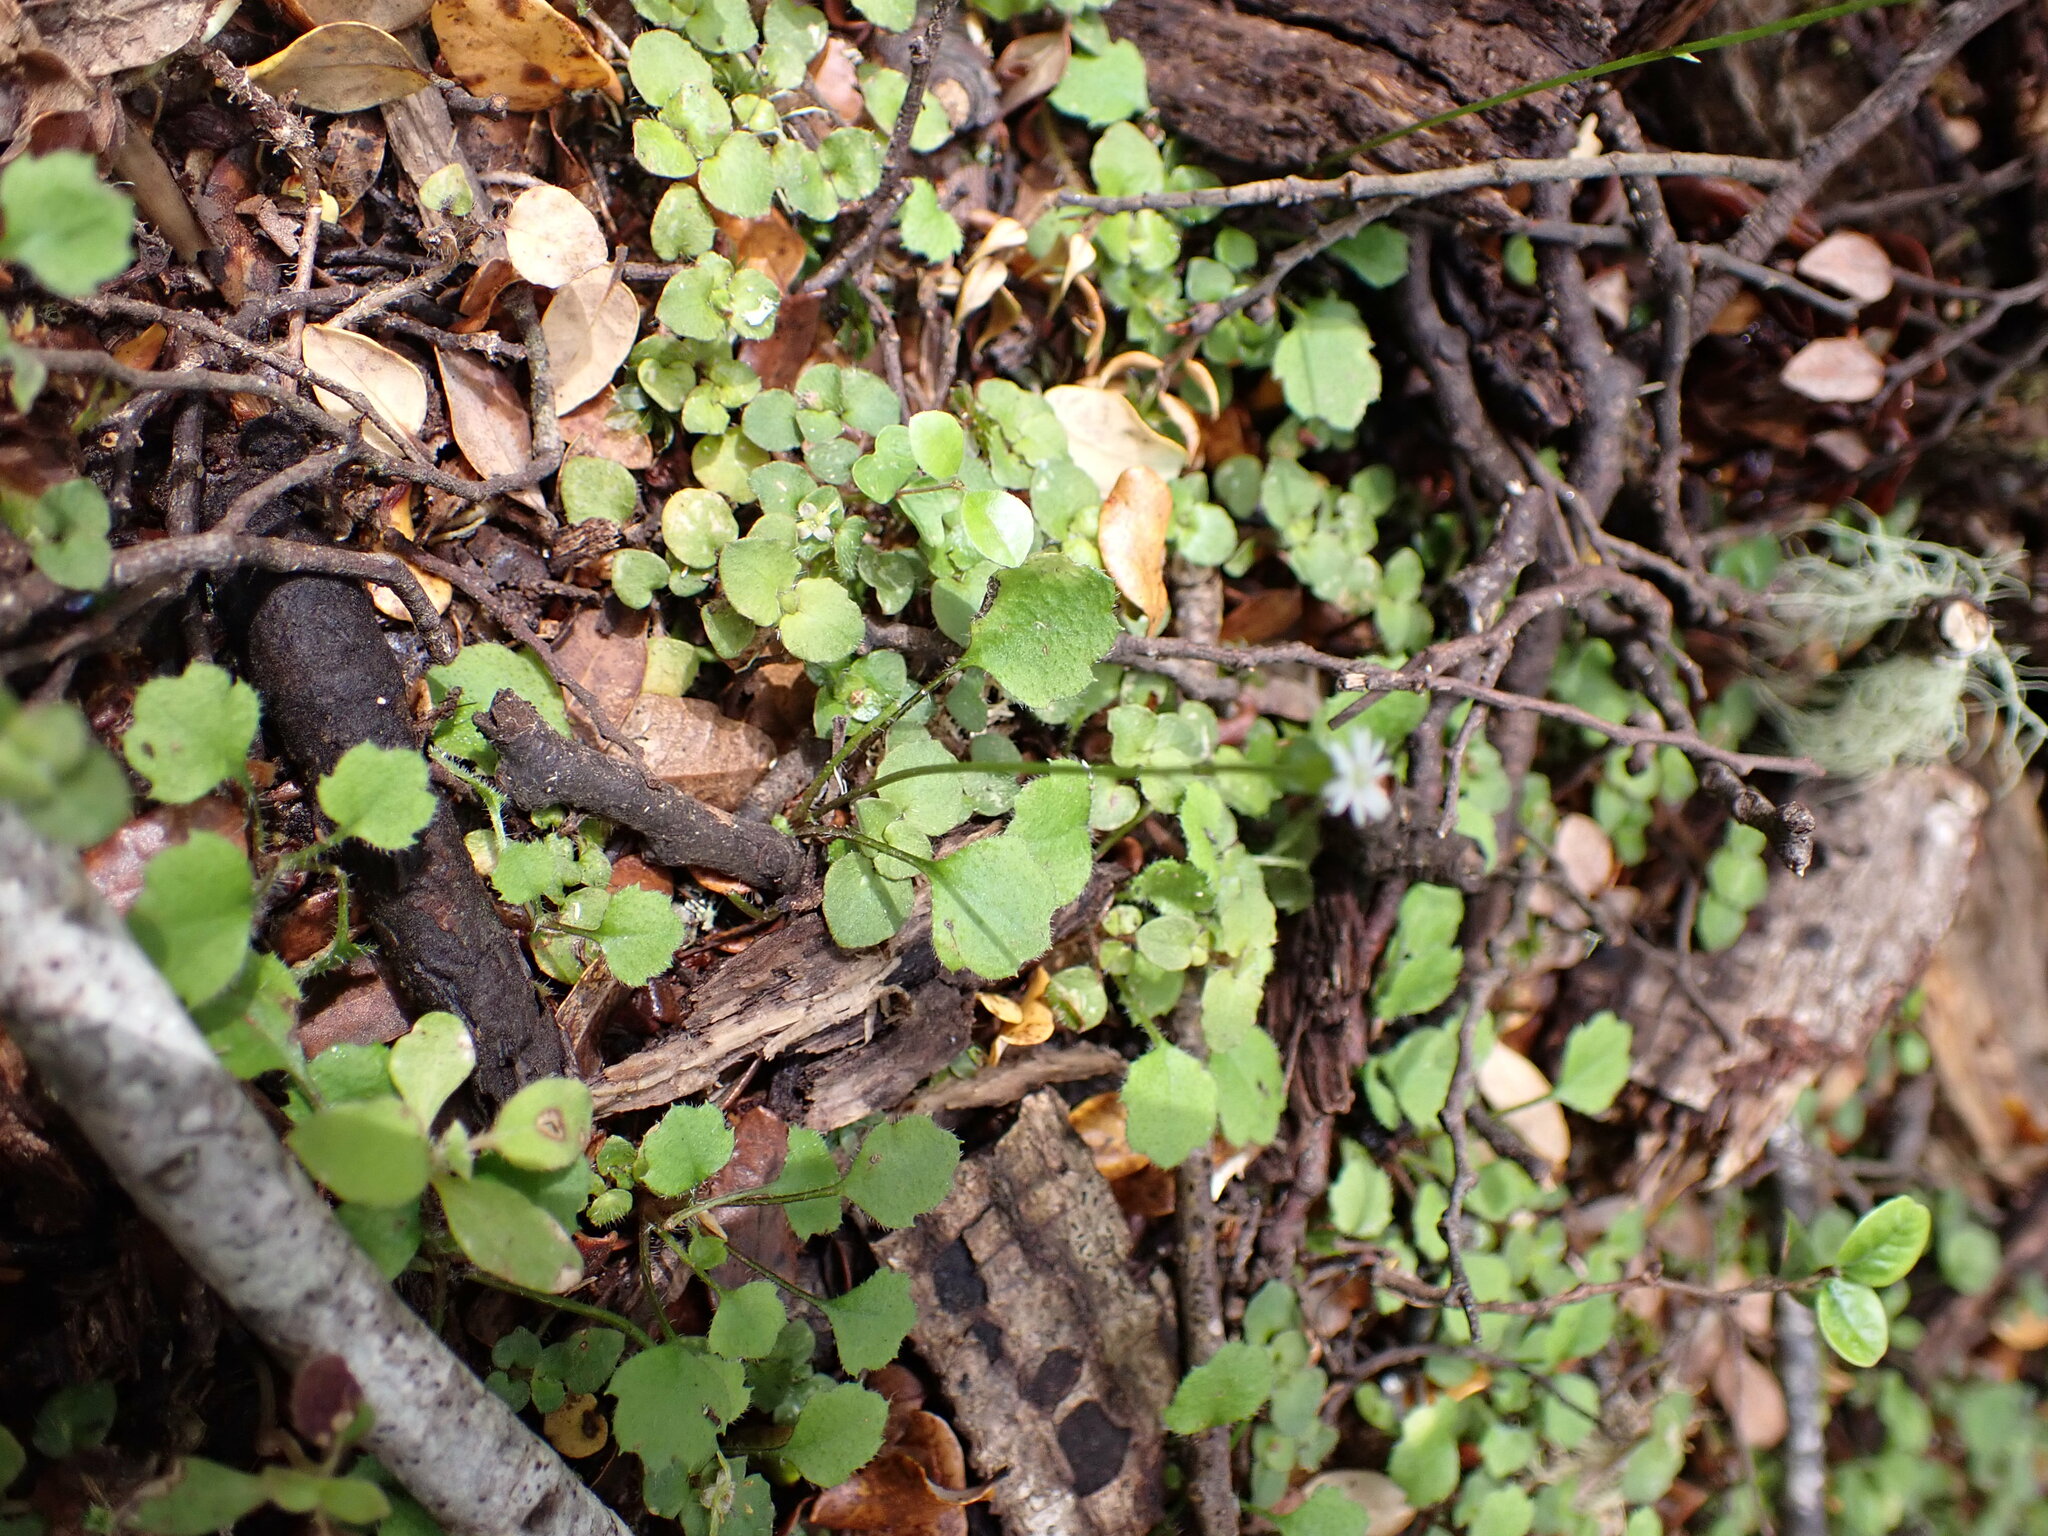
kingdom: Plantae
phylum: Tracheophyta
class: Magnoliopsida
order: Asterales
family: Asteraceae
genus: Lagenophora
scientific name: Lagenophora strangulata
